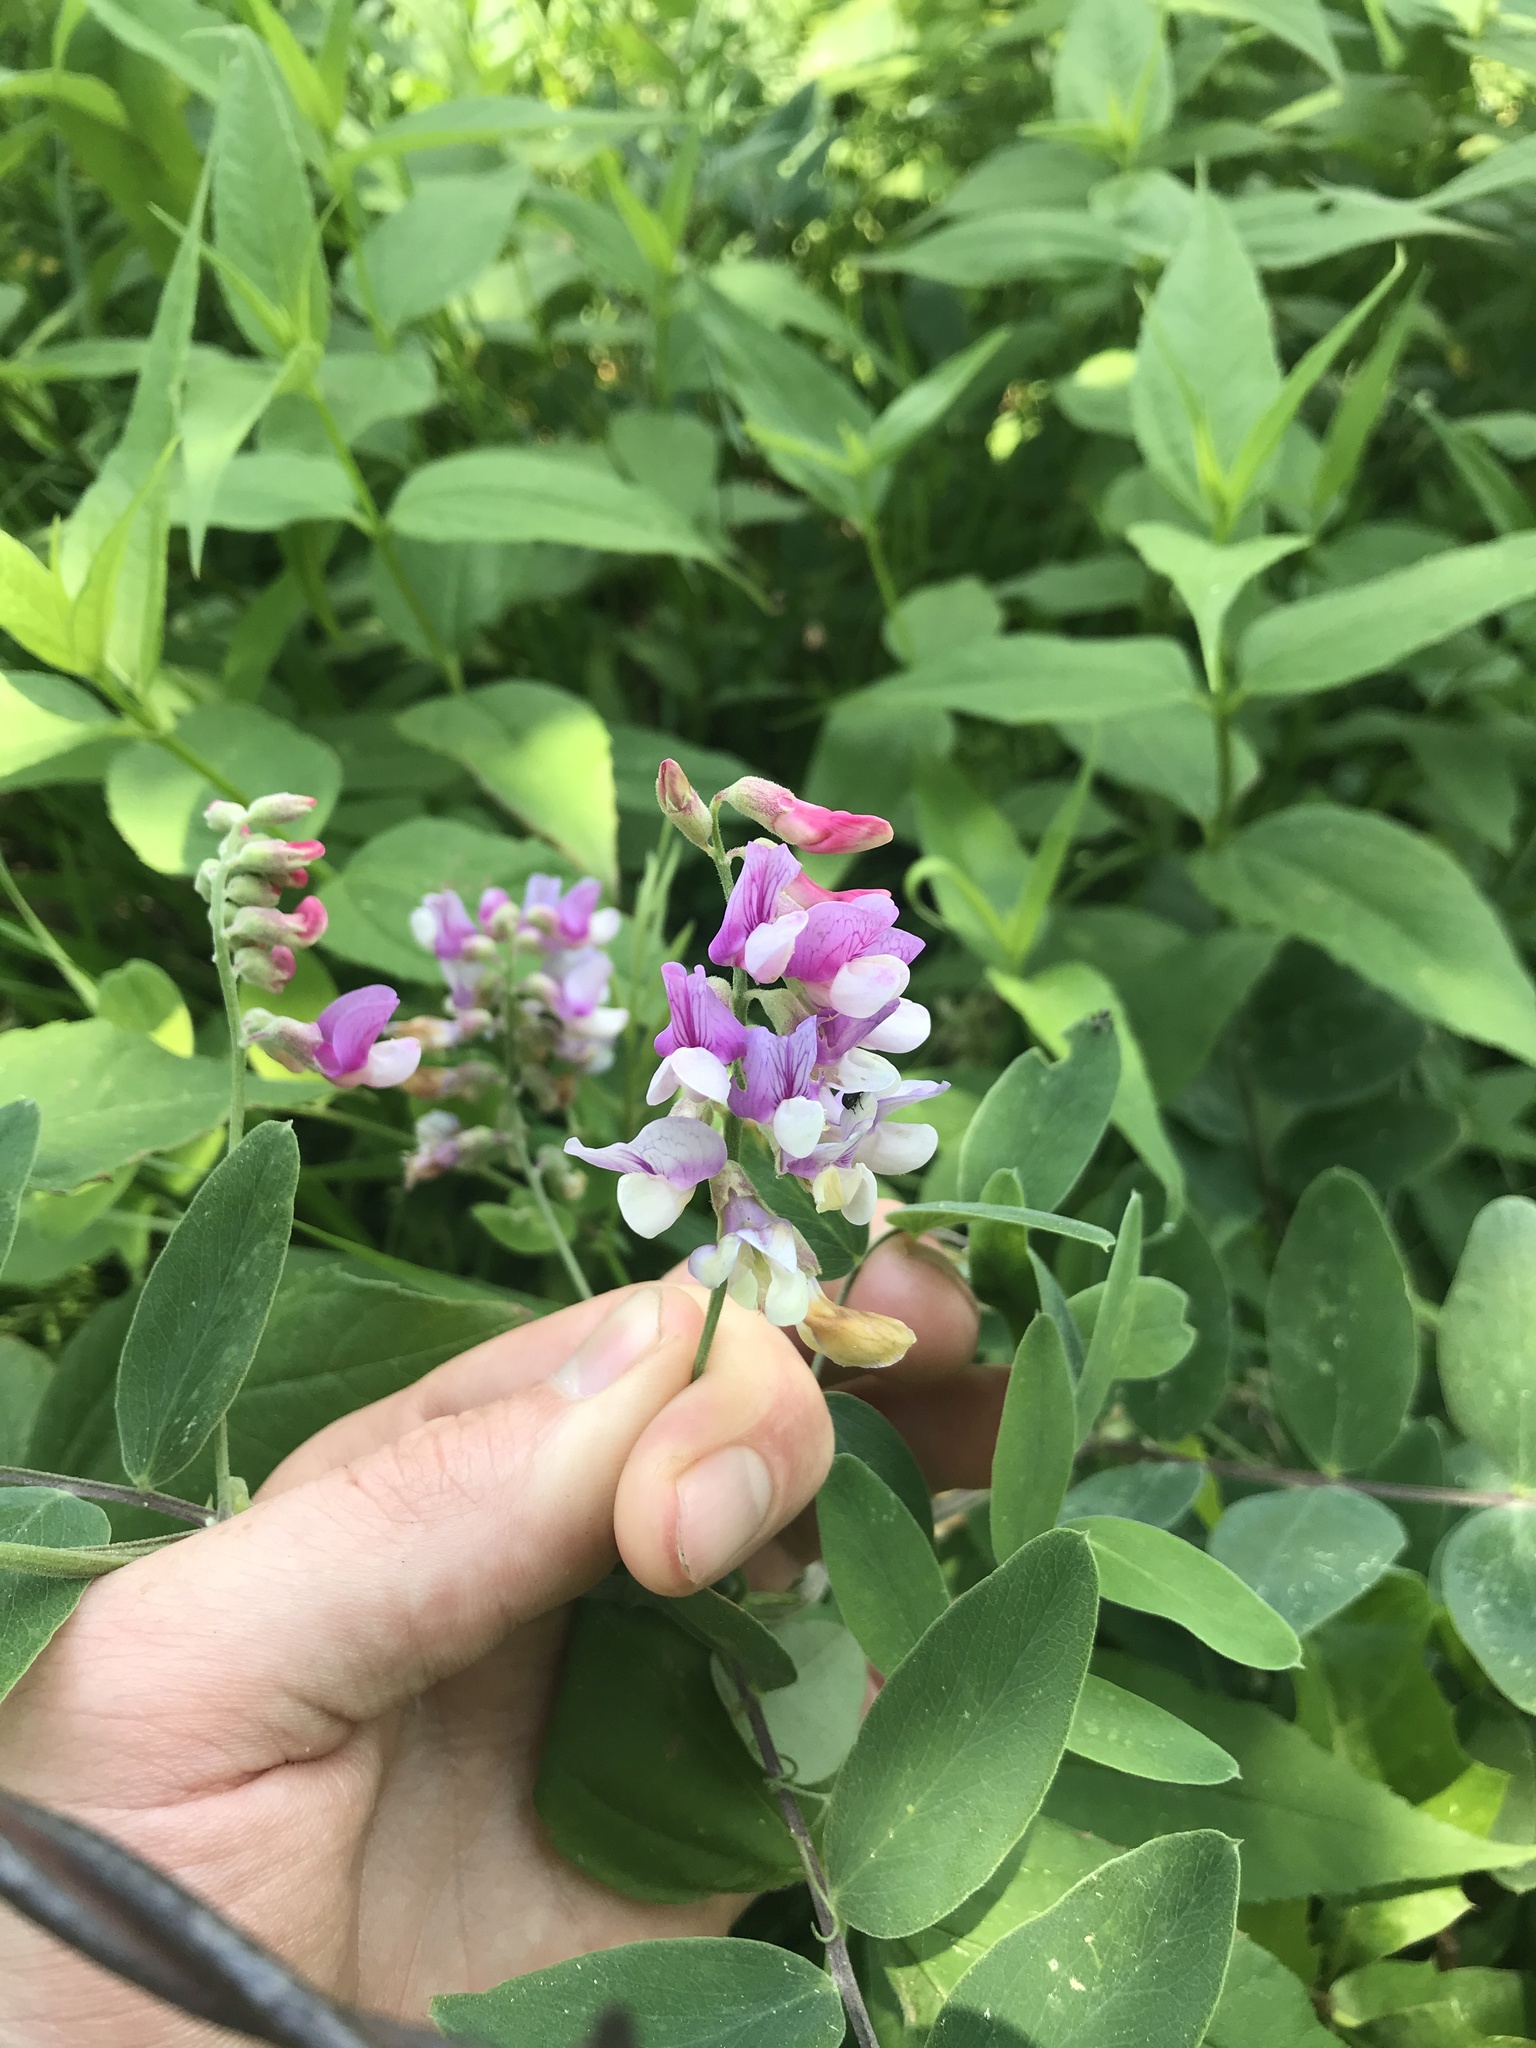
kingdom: Plantae
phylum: Tracheophyta
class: Magnoliopsida
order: Fabales
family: Fabaceae
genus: Lathyrus
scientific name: Lathyrus venosus
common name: Forest-pea
